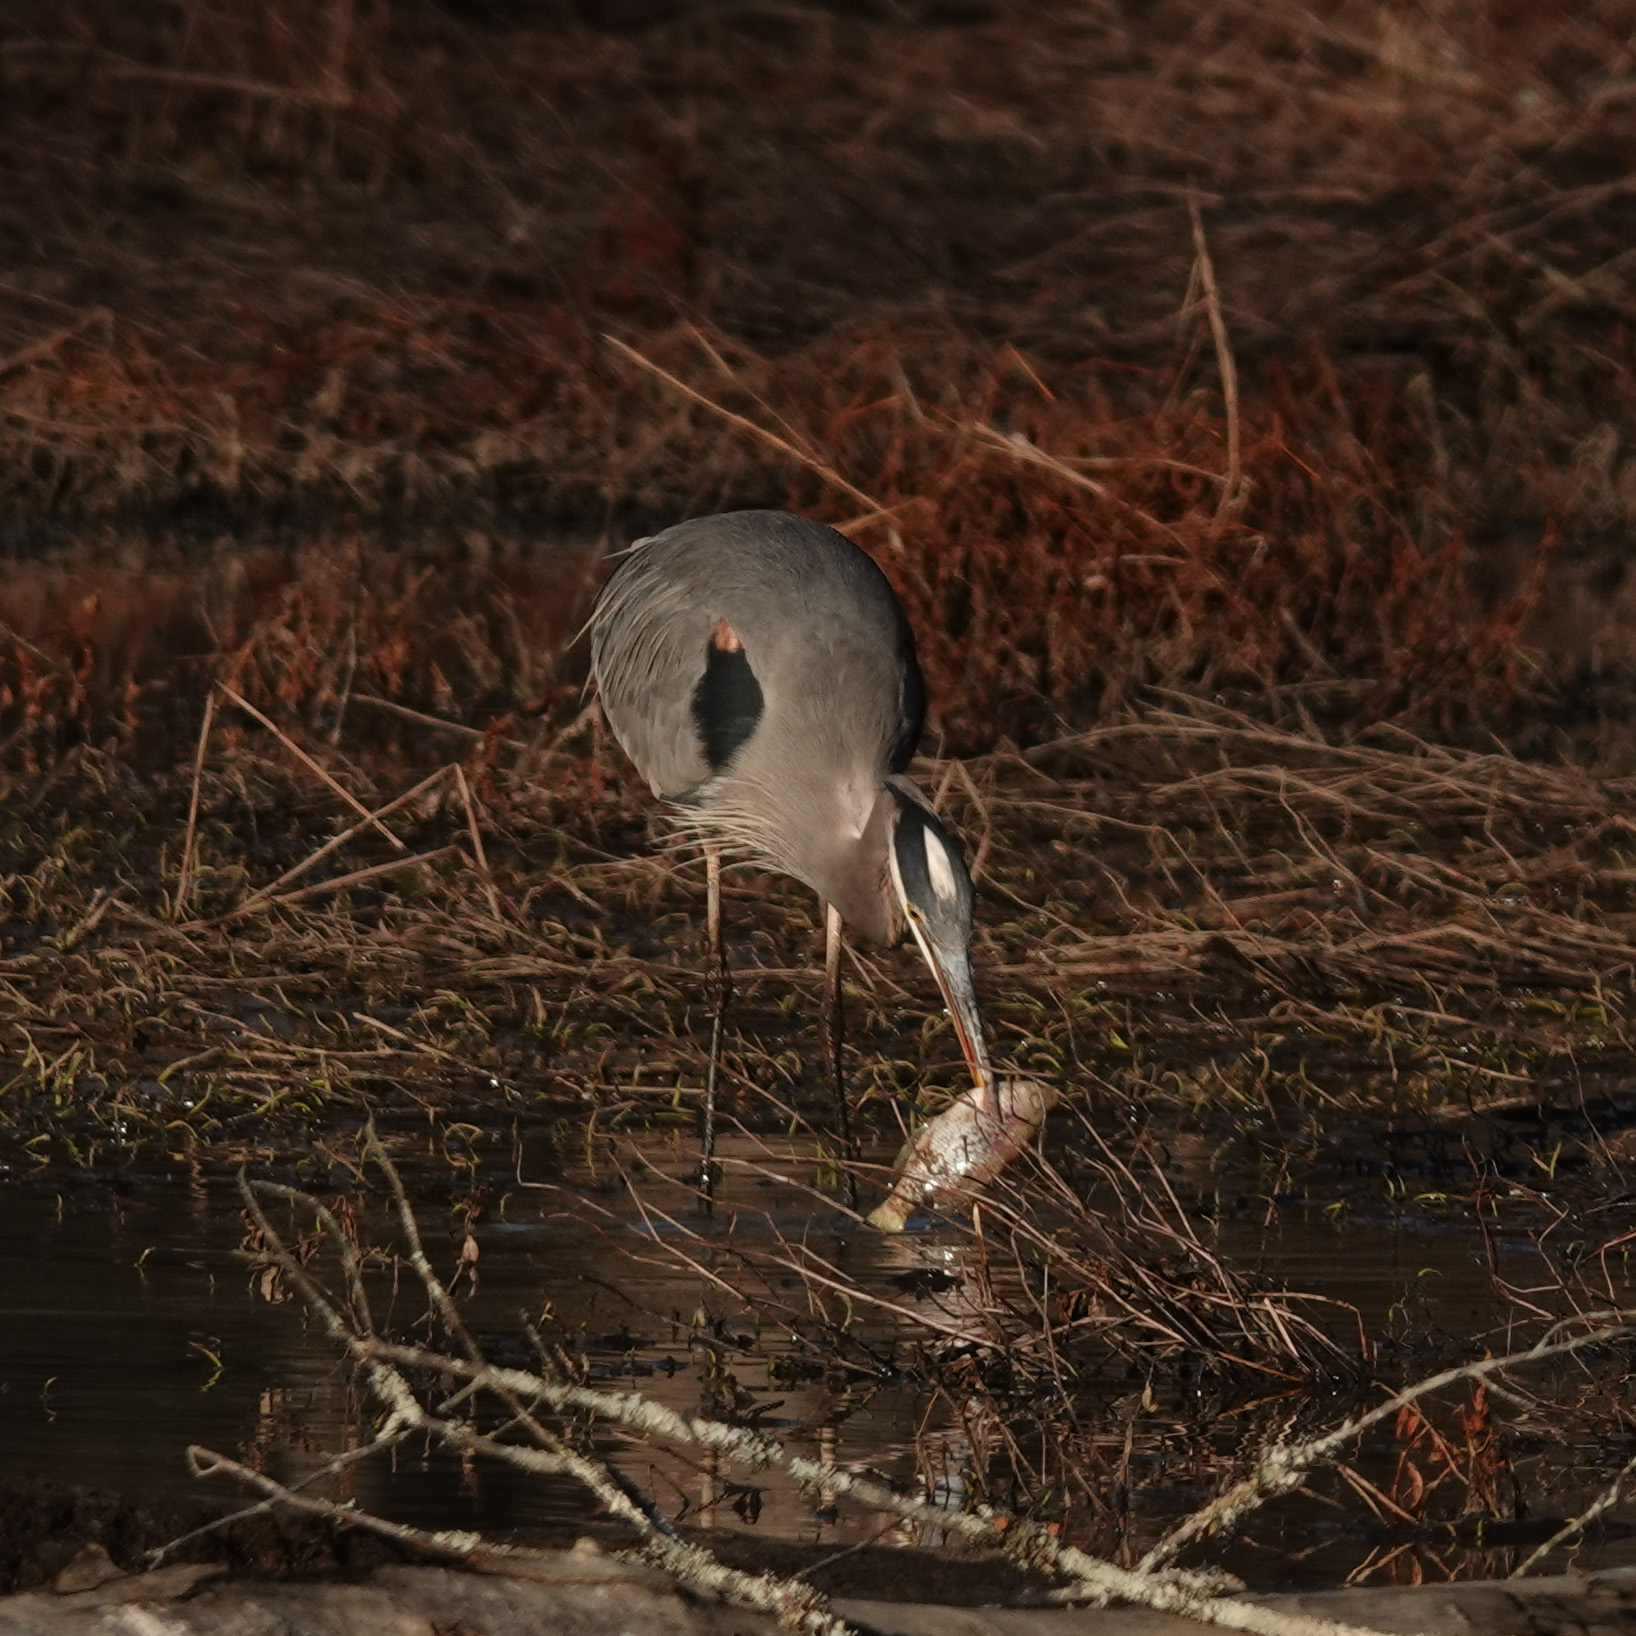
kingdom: Animalia
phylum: Chordata
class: Aves
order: Pelecaniformes
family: Ardeidae
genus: Ardea
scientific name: Ardea herodias
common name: Great blue heron
